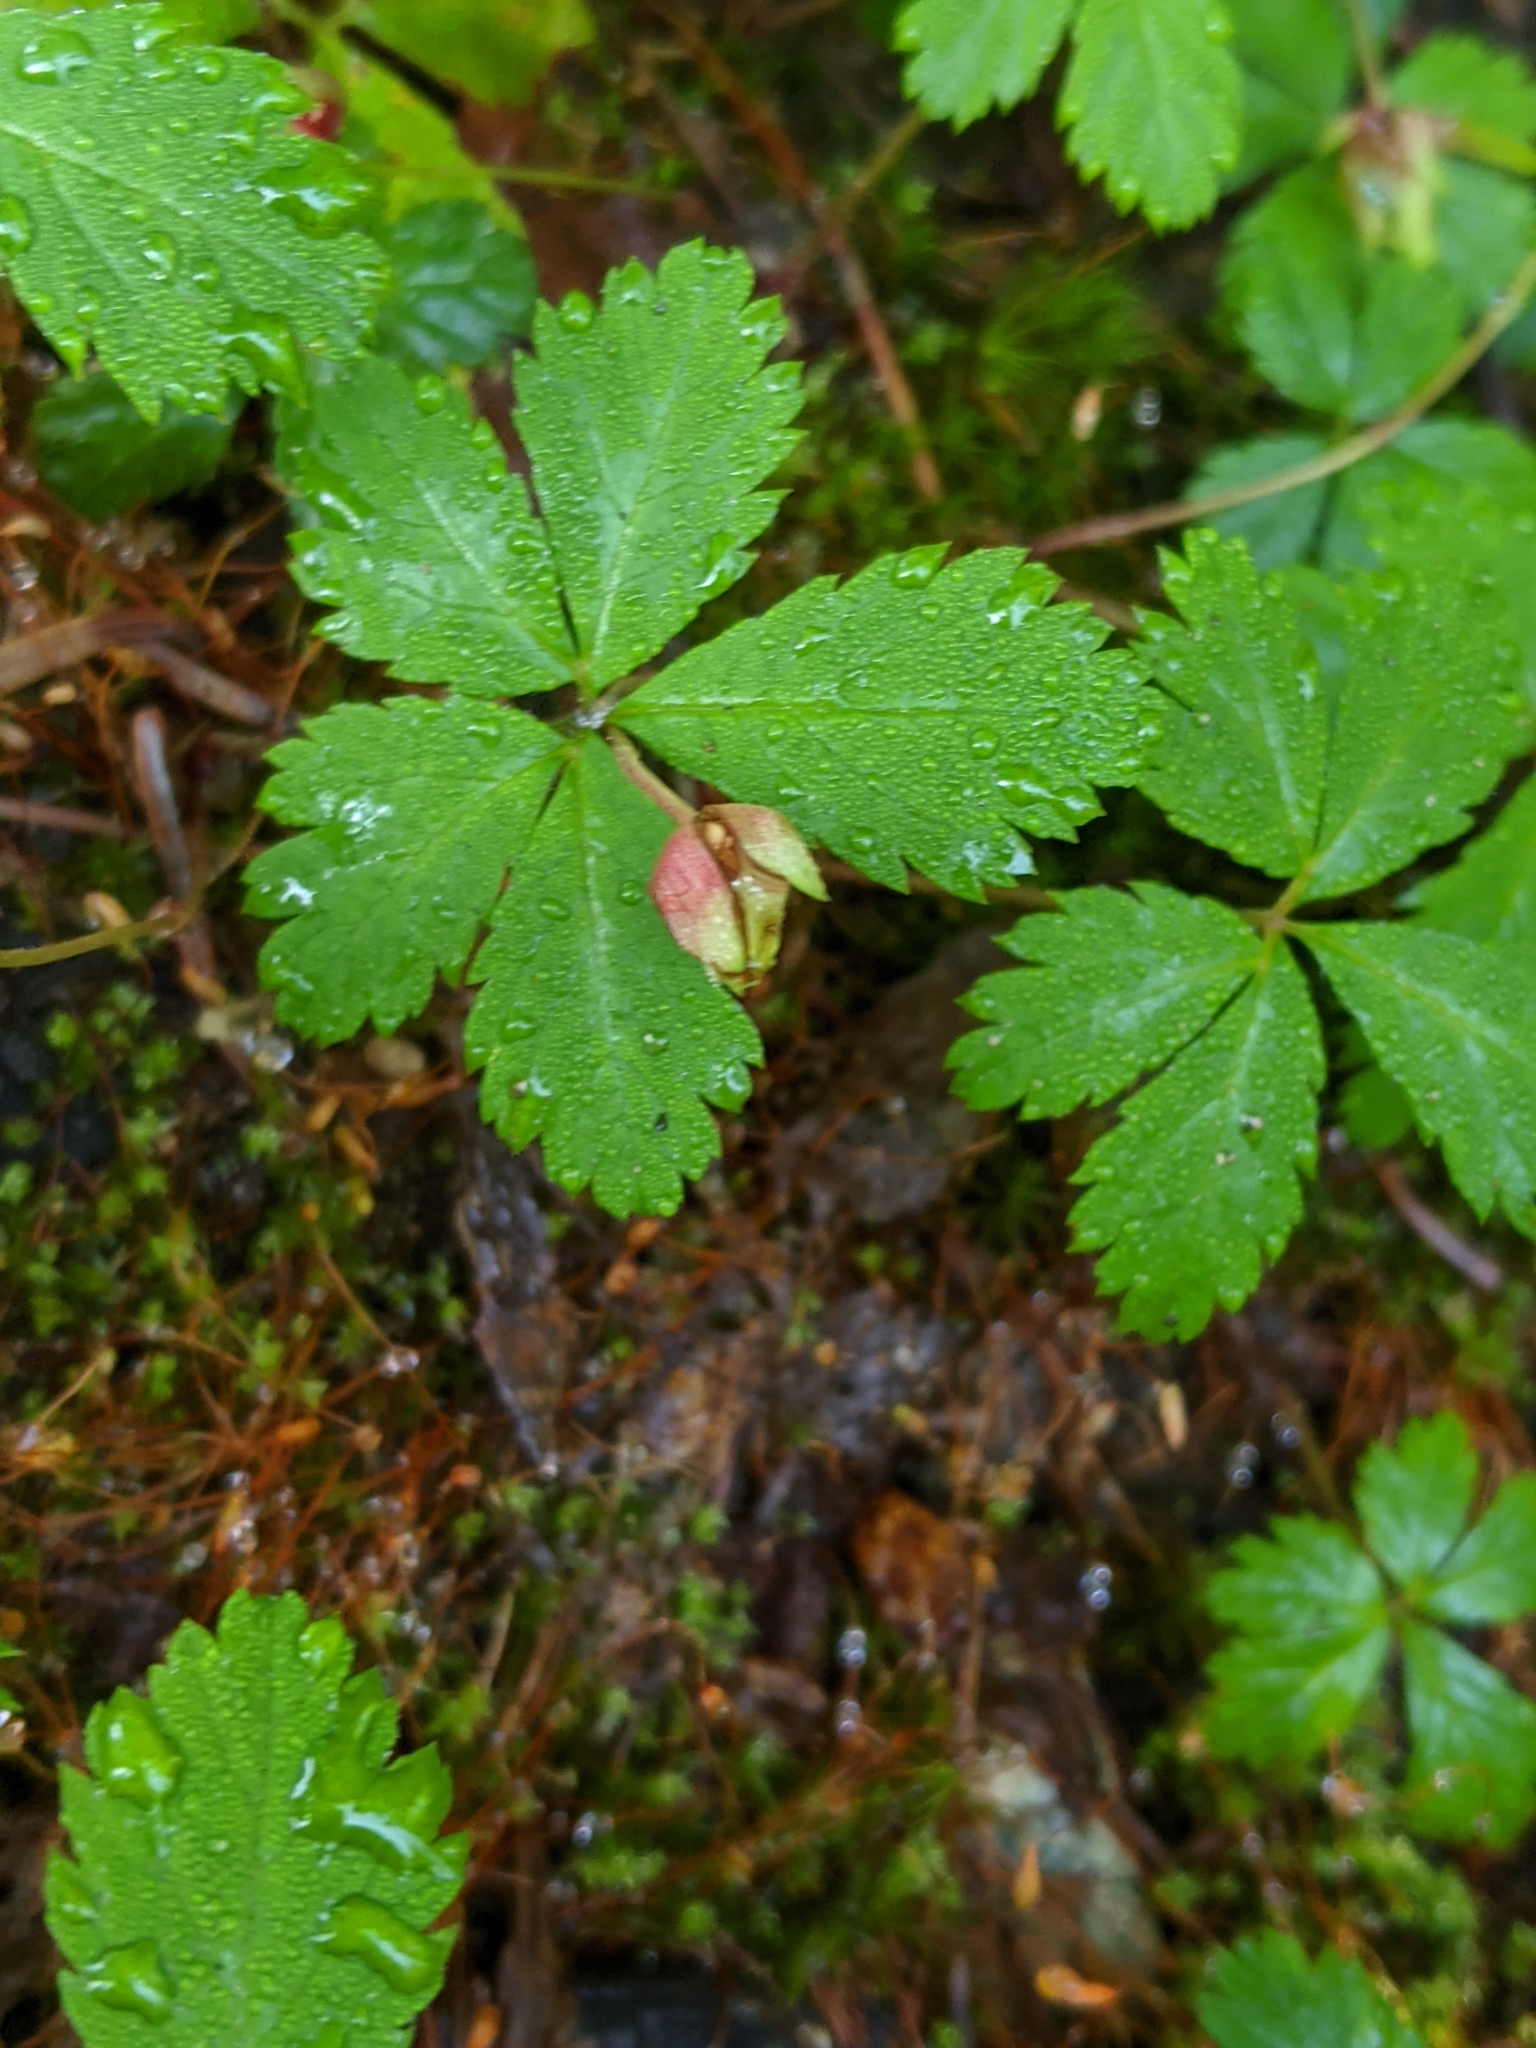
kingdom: Plantae
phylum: Tracheophyta
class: Magnoliopsida
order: Rosales
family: Rosaceae
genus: Rubus
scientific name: Rubus pedatus
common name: Creeping raspberry
